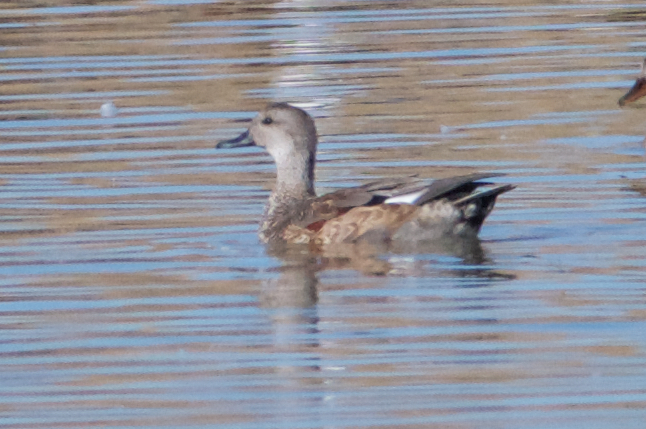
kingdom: Animalia
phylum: Chordata
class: Aves
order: Anseriformes
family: Anatidae
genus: Mareca
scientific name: Mareca strepera
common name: Gadwall
